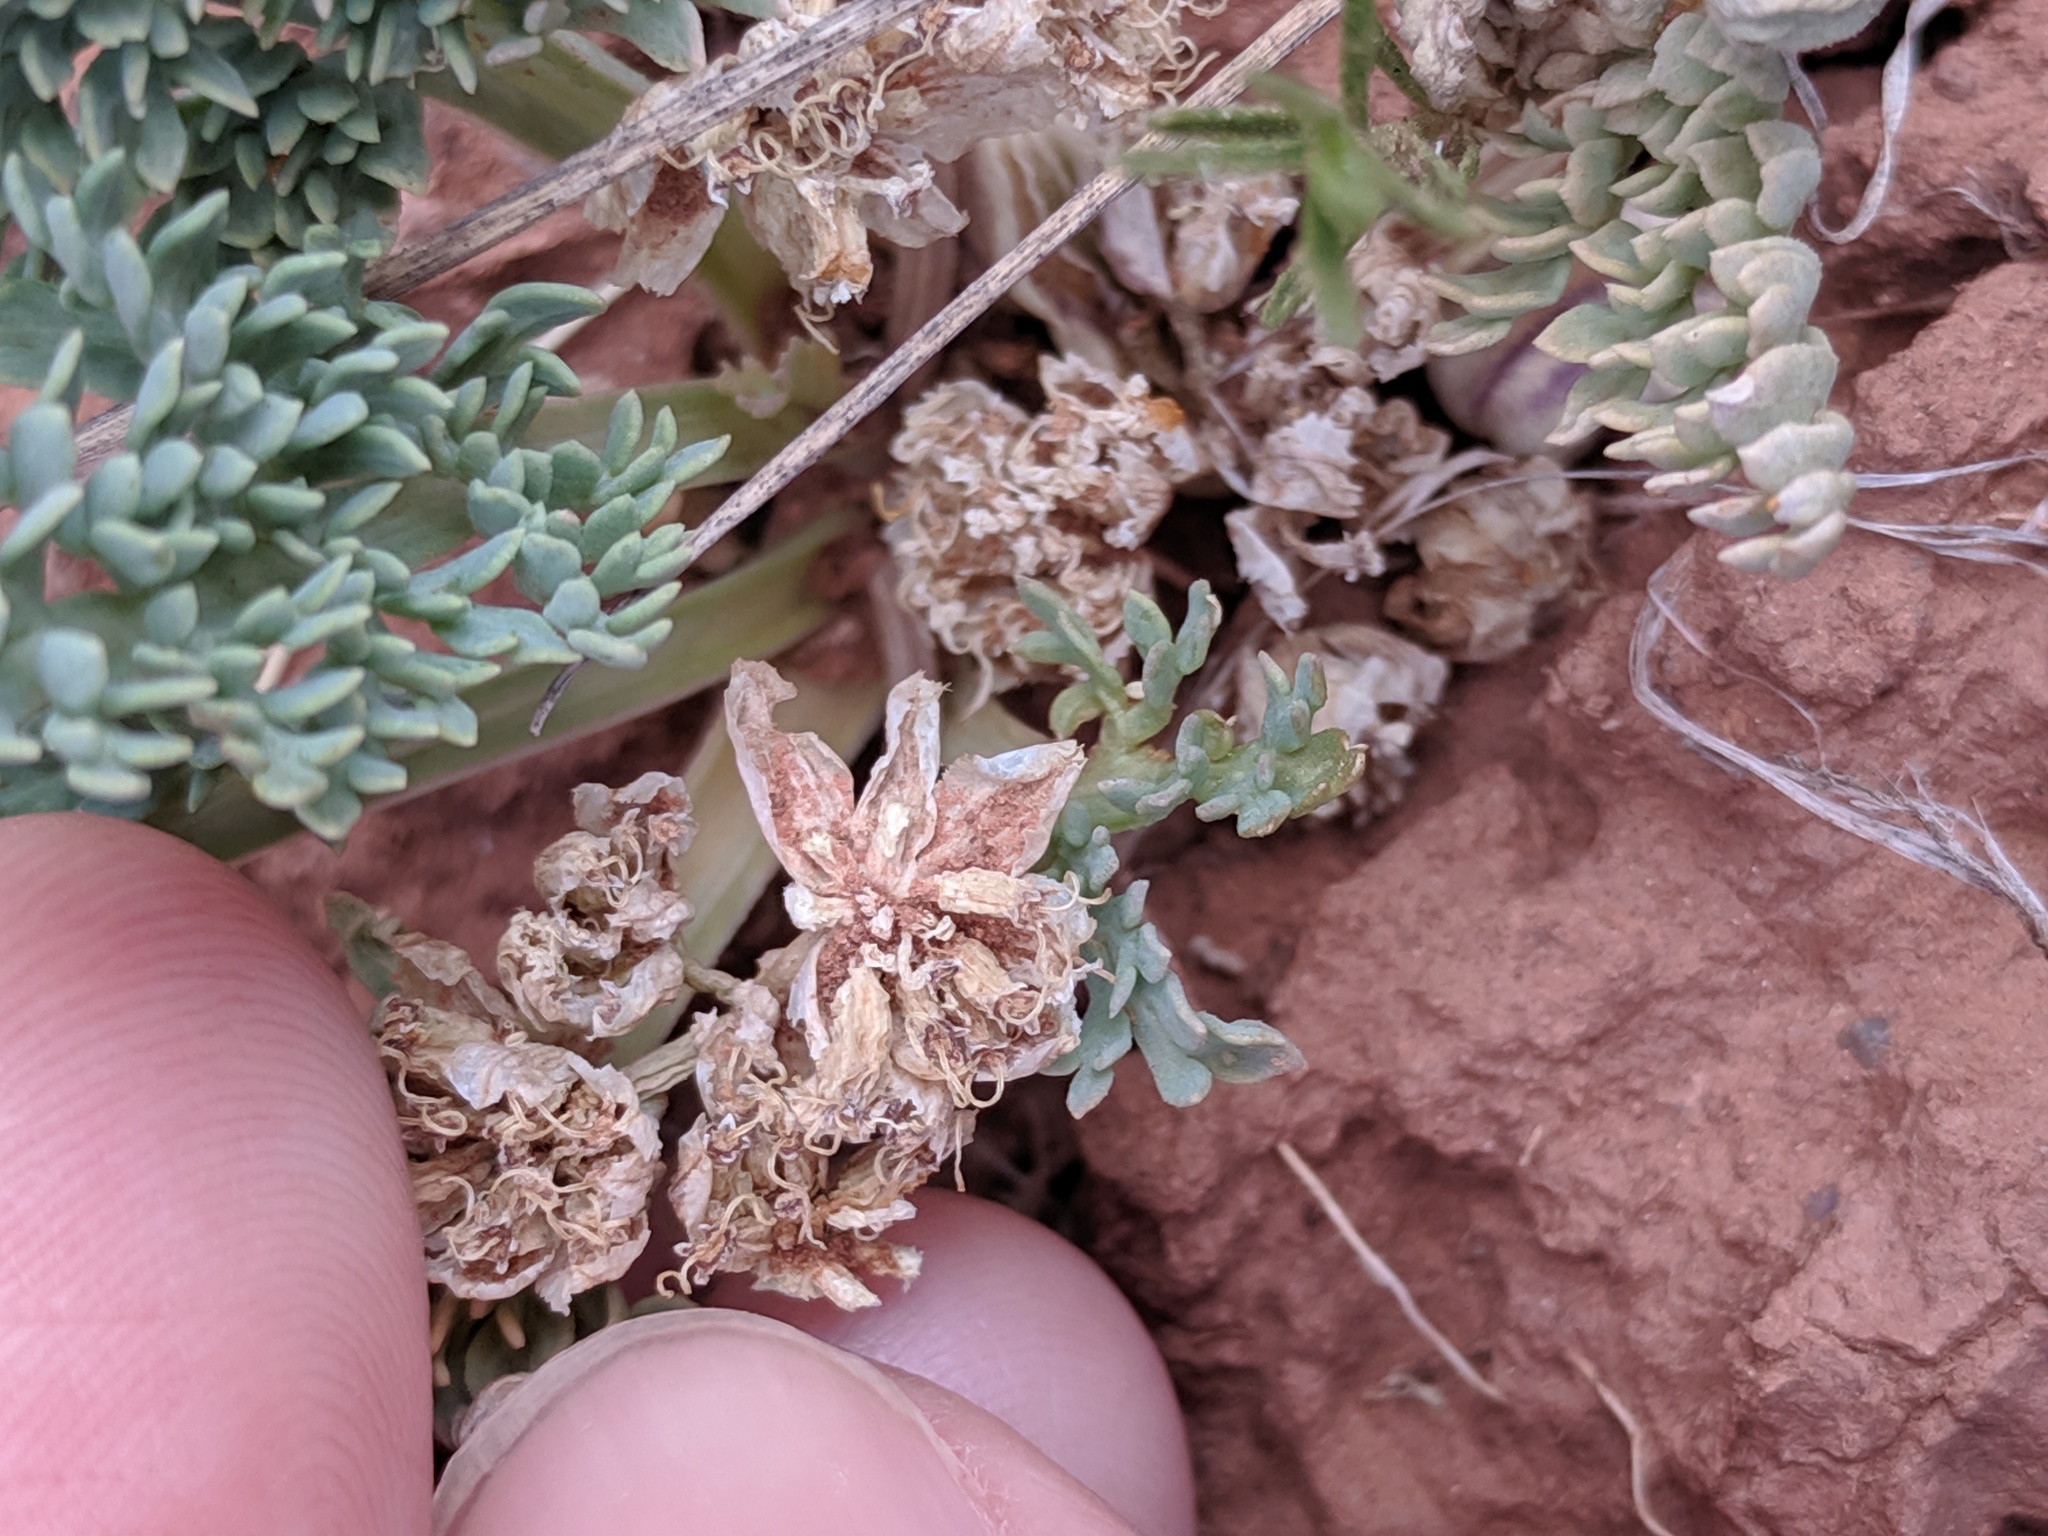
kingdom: Plantae
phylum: Tracheophyta
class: Magnoliopsida
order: Apiales
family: Apiaceae
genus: Vesper
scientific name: Vesper montanus
